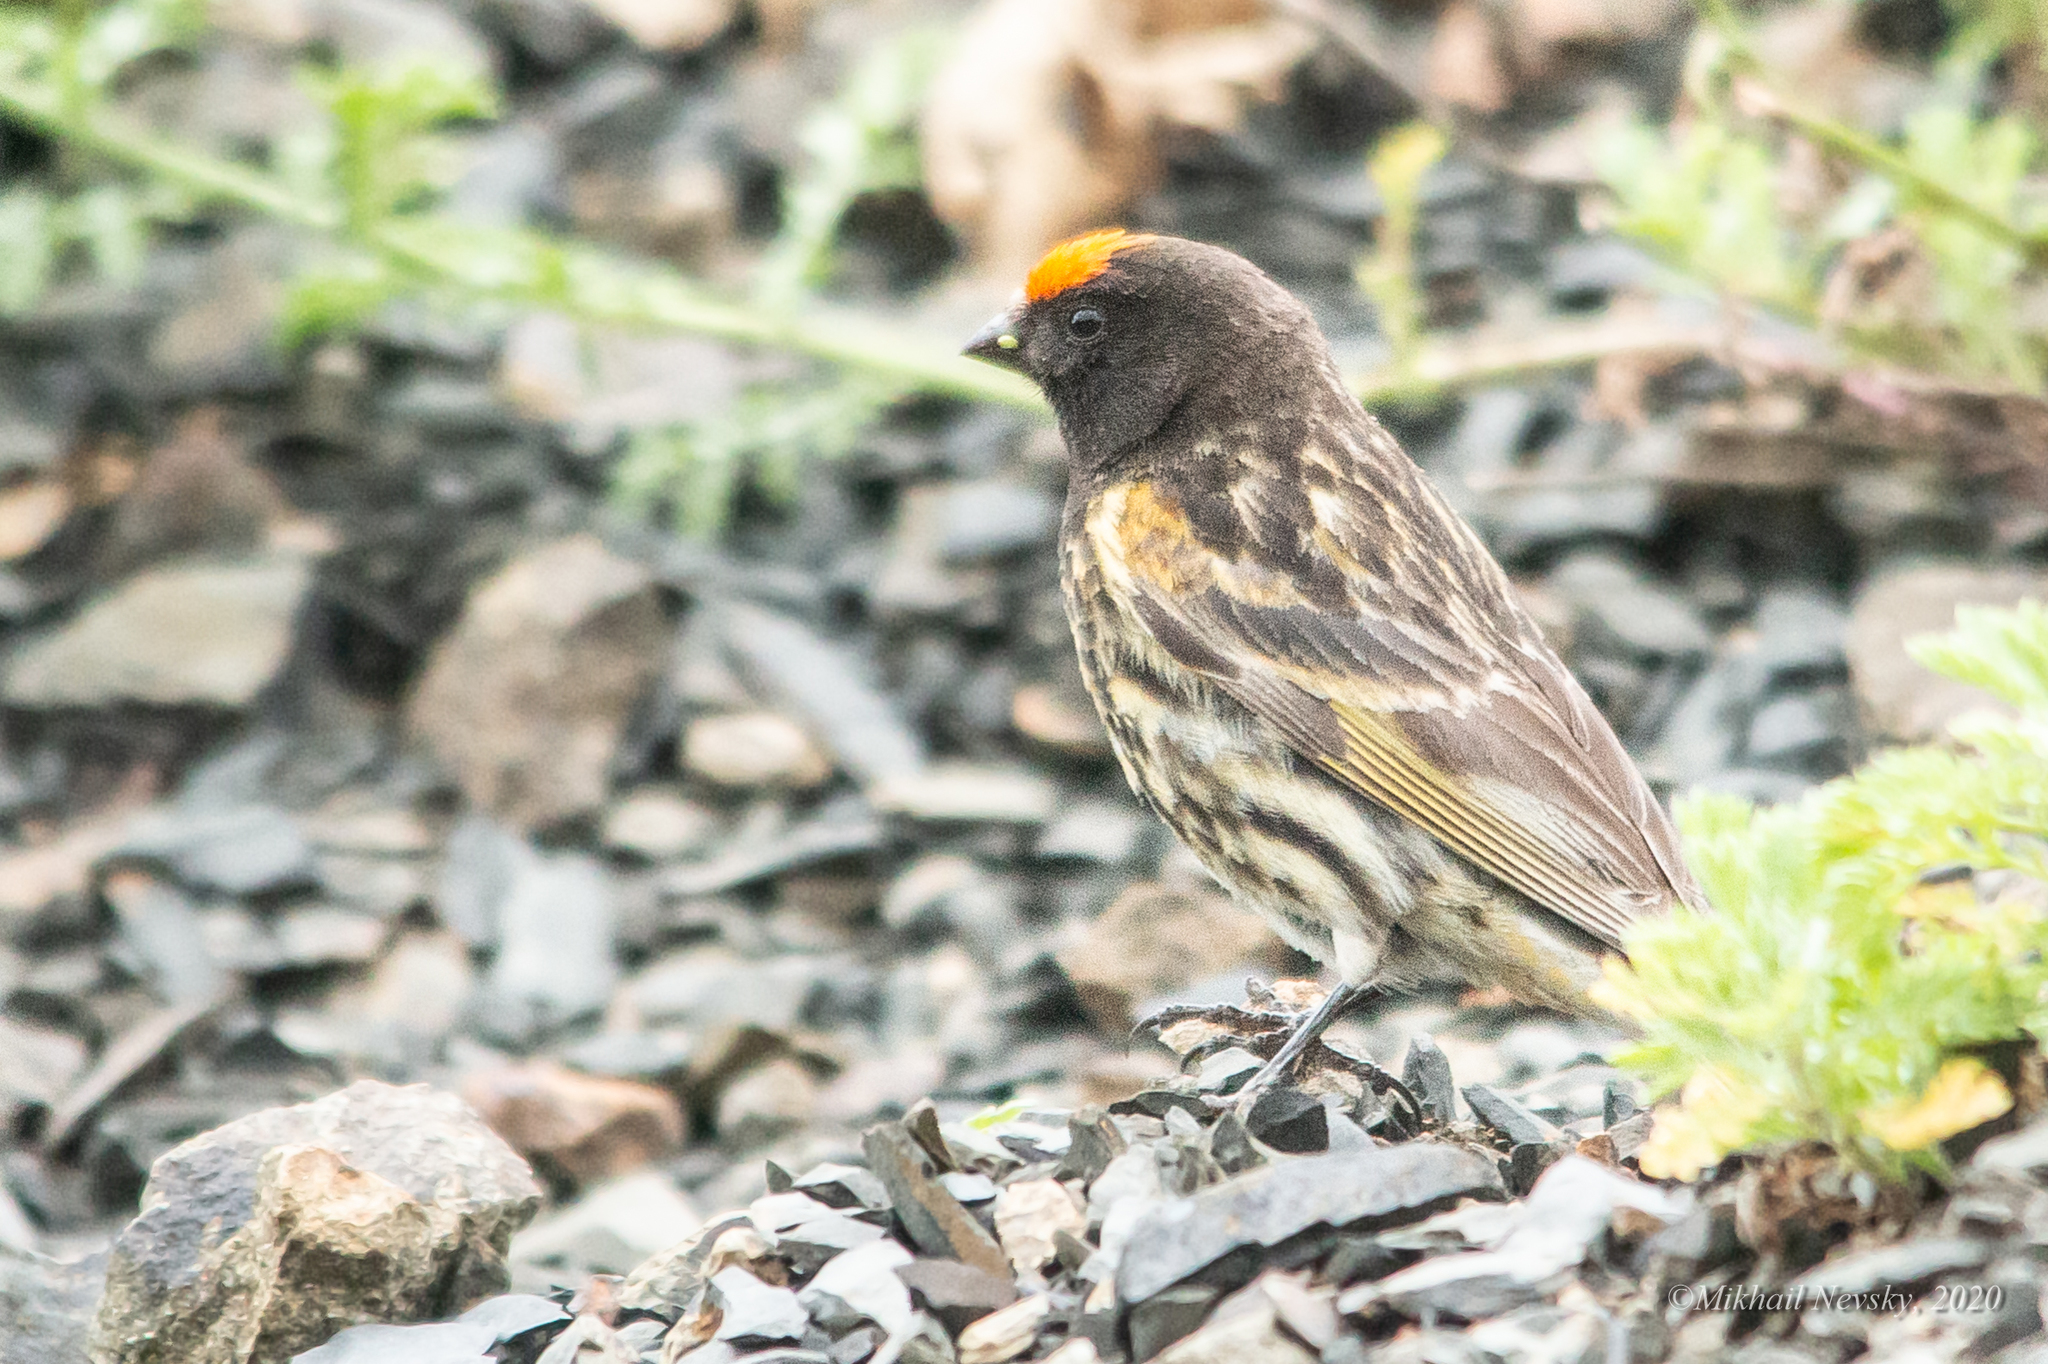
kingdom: Animalia
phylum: Chordata
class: Aves
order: Passeriformes
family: Fringillidae
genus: Serinus
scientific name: Serinus pusillus
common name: Red-fronted serin
